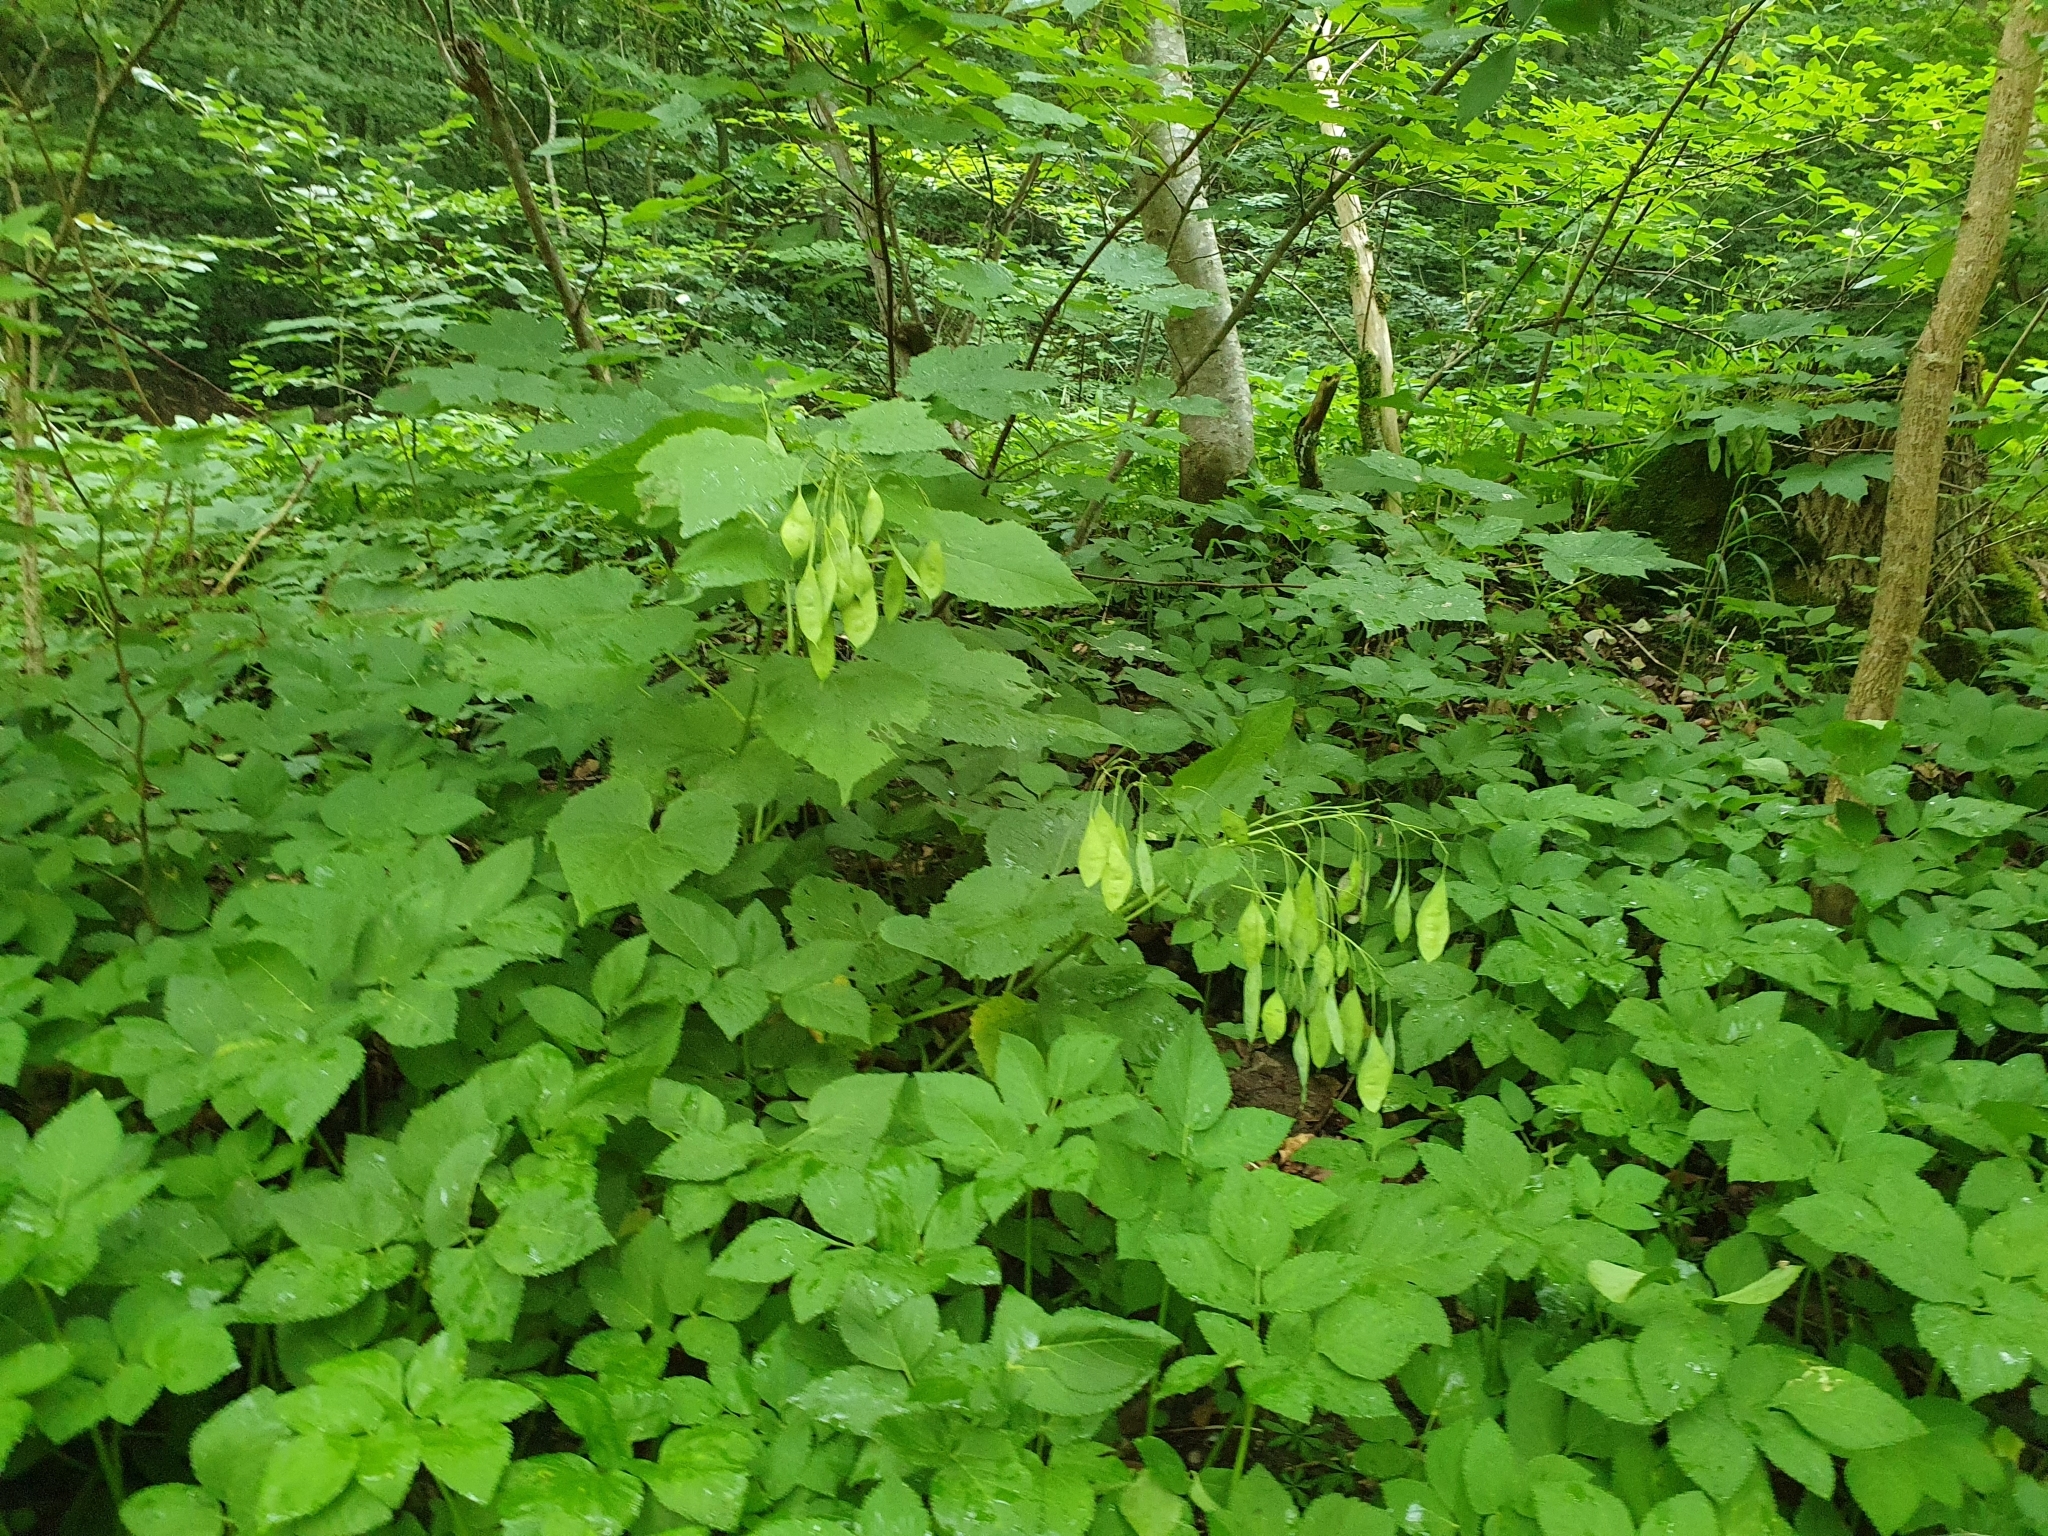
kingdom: Plantae
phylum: Tracheophyta
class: Magnoliopsida
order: Brassicales
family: Brassicaceae
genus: Lunaria
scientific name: Lunaria rediviva
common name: Perennial honesty
